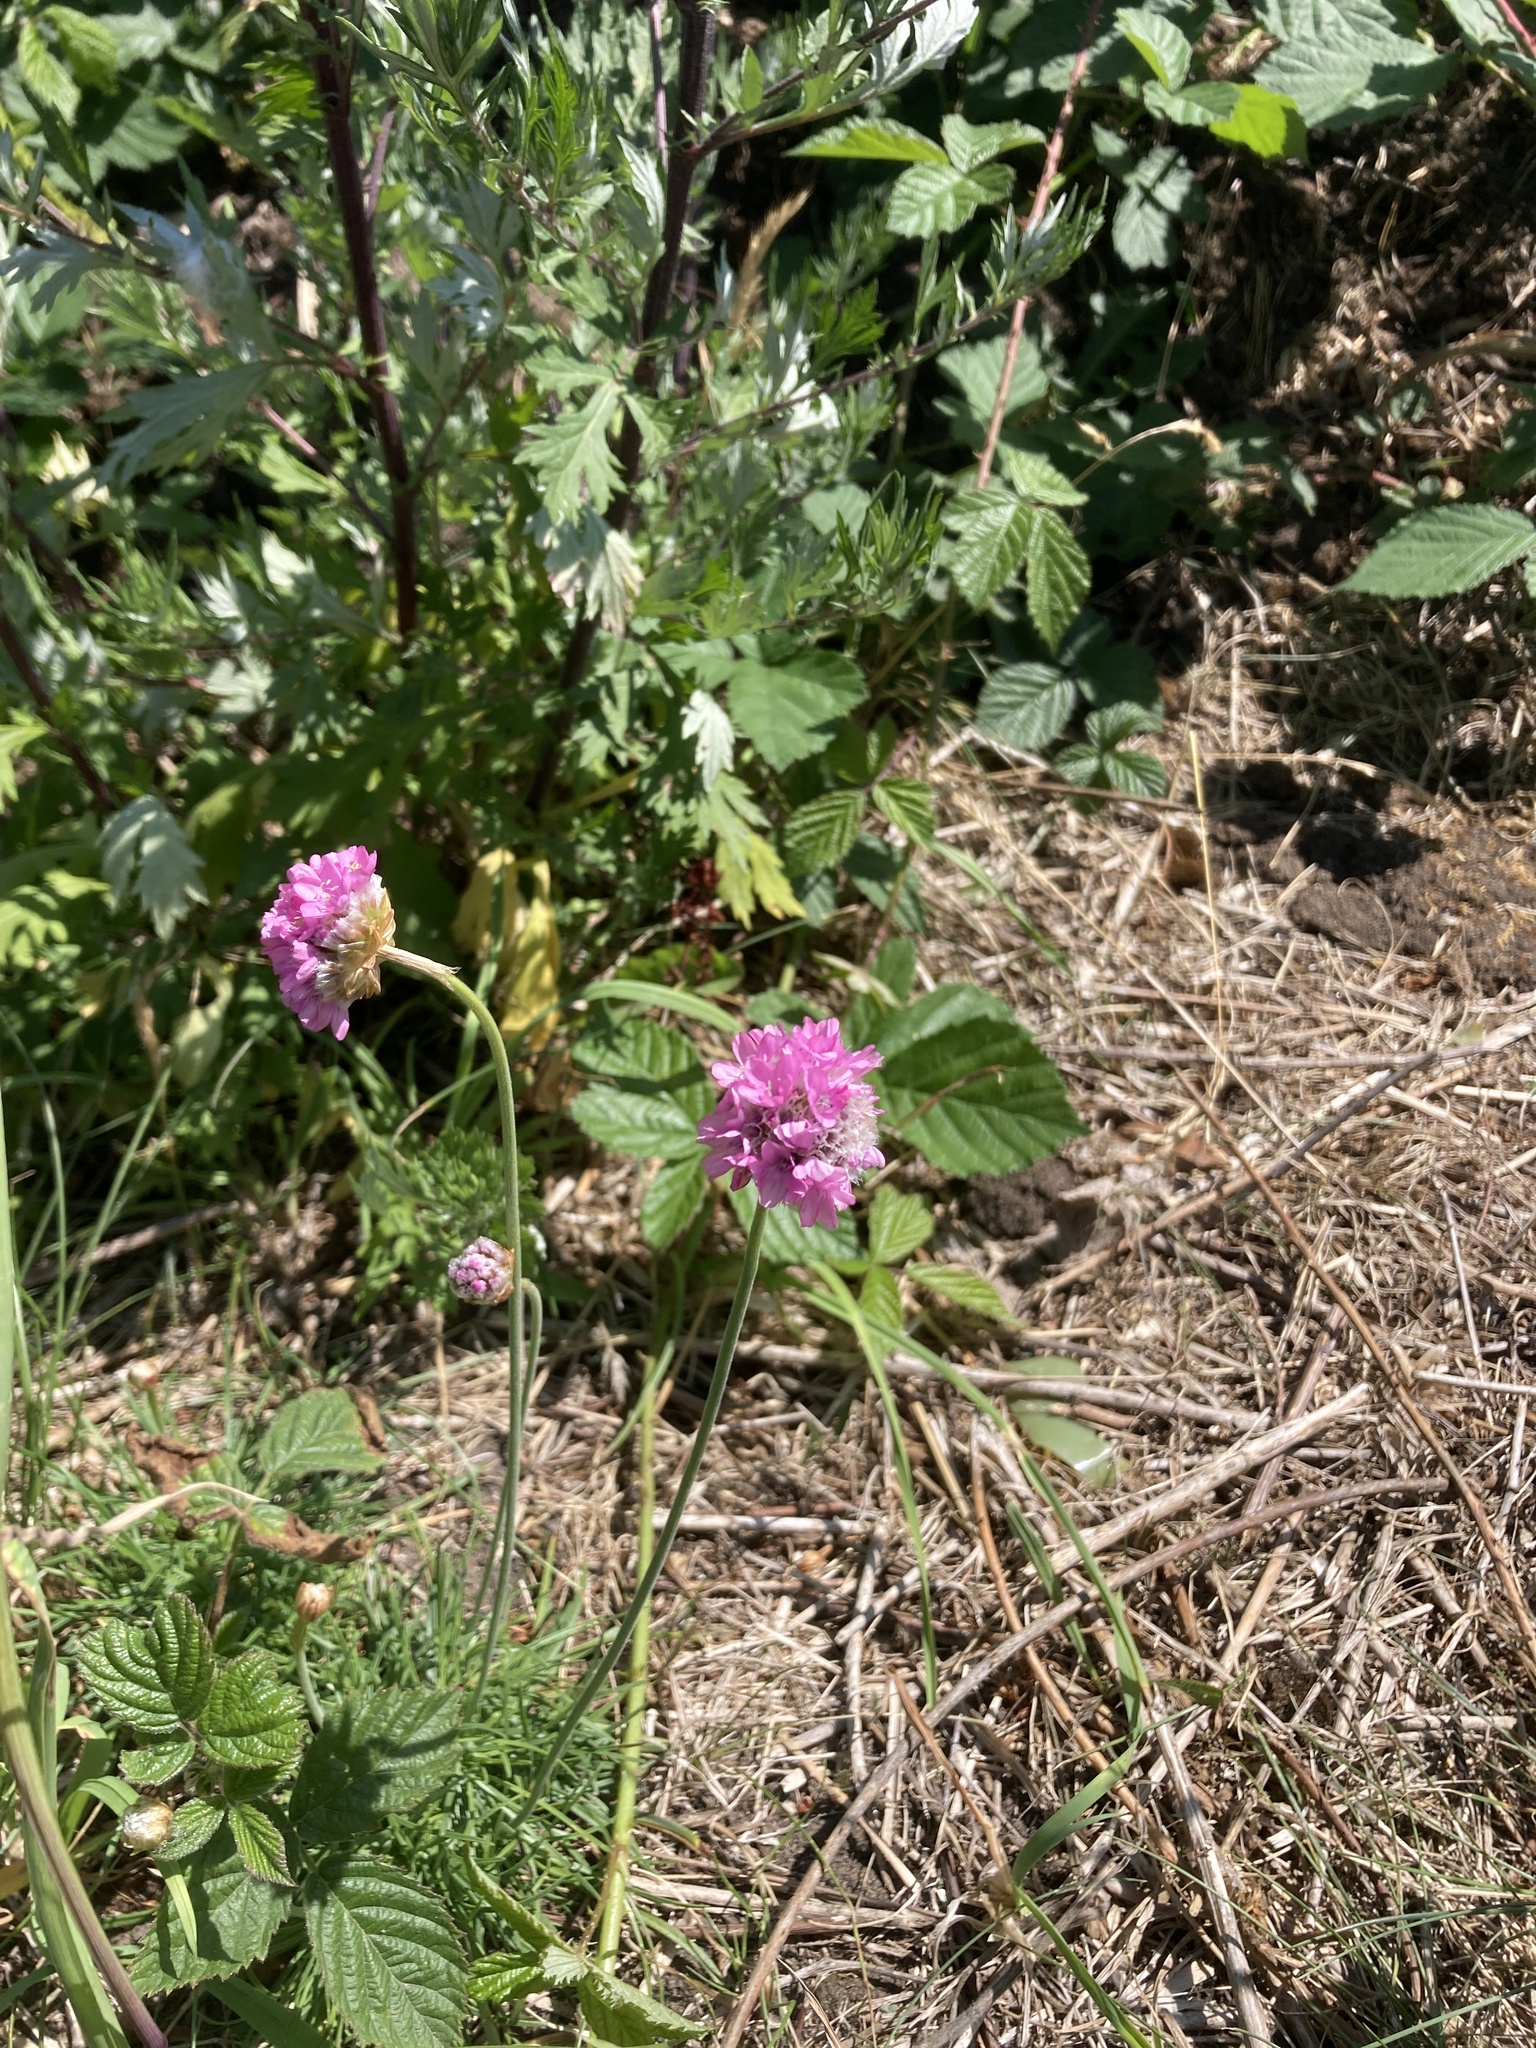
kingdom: Plantae
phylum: Tracheophyta
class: Magnoliopsida
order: Caryophyllales
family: Plumbaginaceae
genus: Armeria
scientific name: Armeria maritima
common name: Thrift
